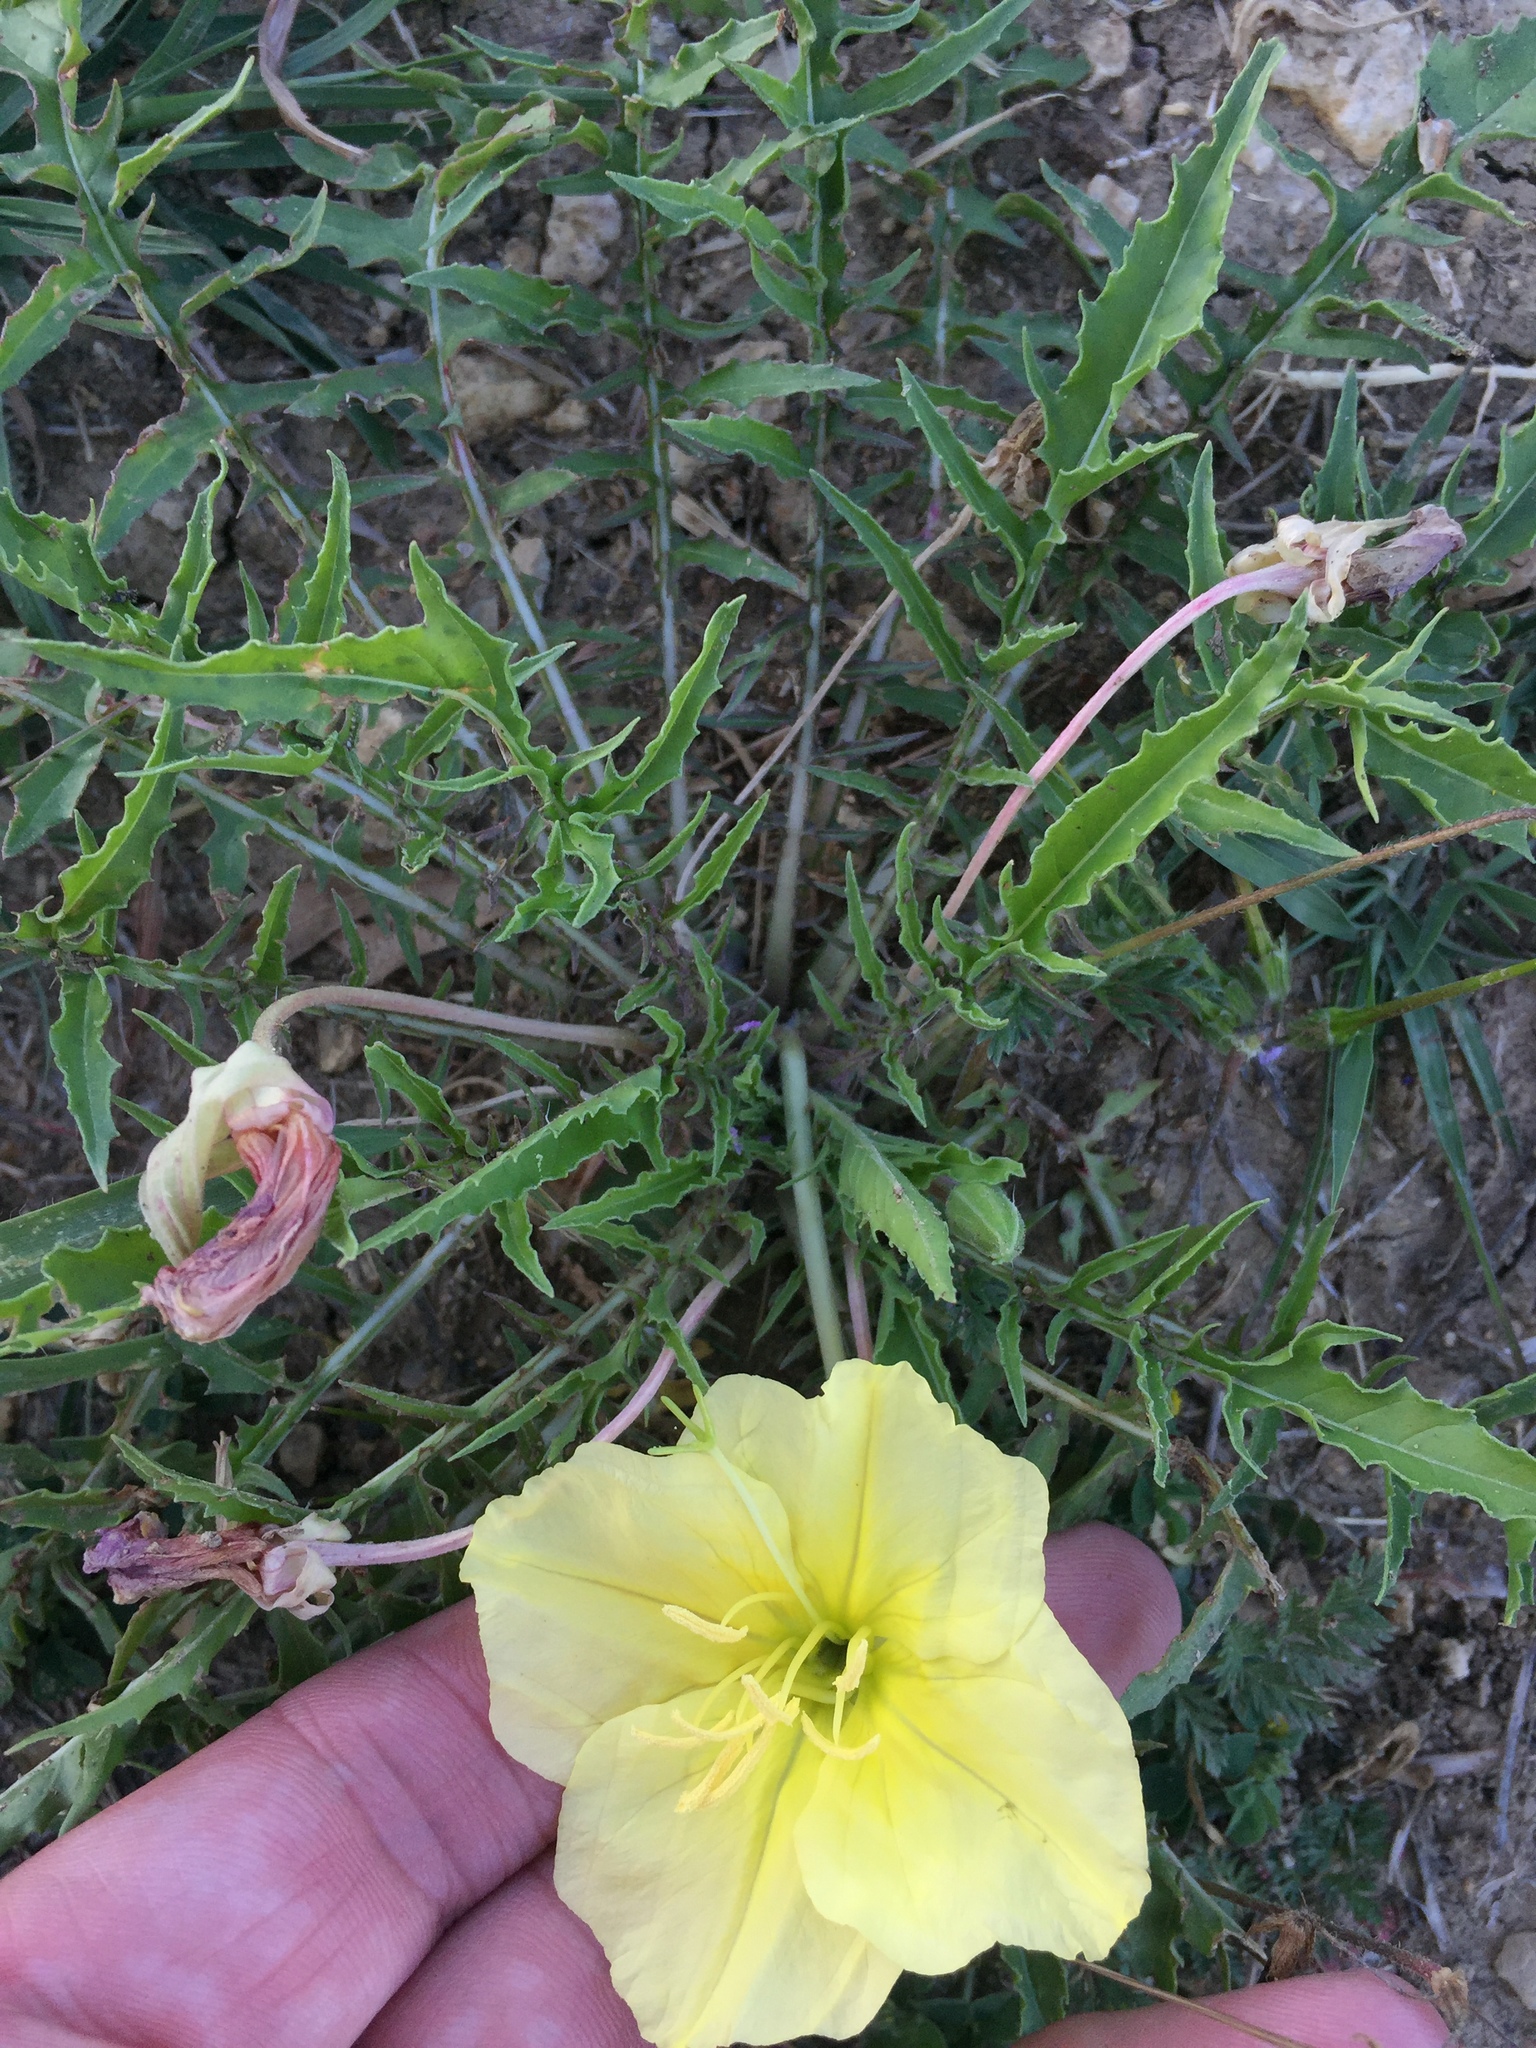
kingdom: Plantae
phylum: Tracheophyta
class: Magnoliopsida
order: Myrtales
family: Onagraceae
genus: Oenothera
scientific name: Oenothera triloba
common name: Sessile evening-primrose
